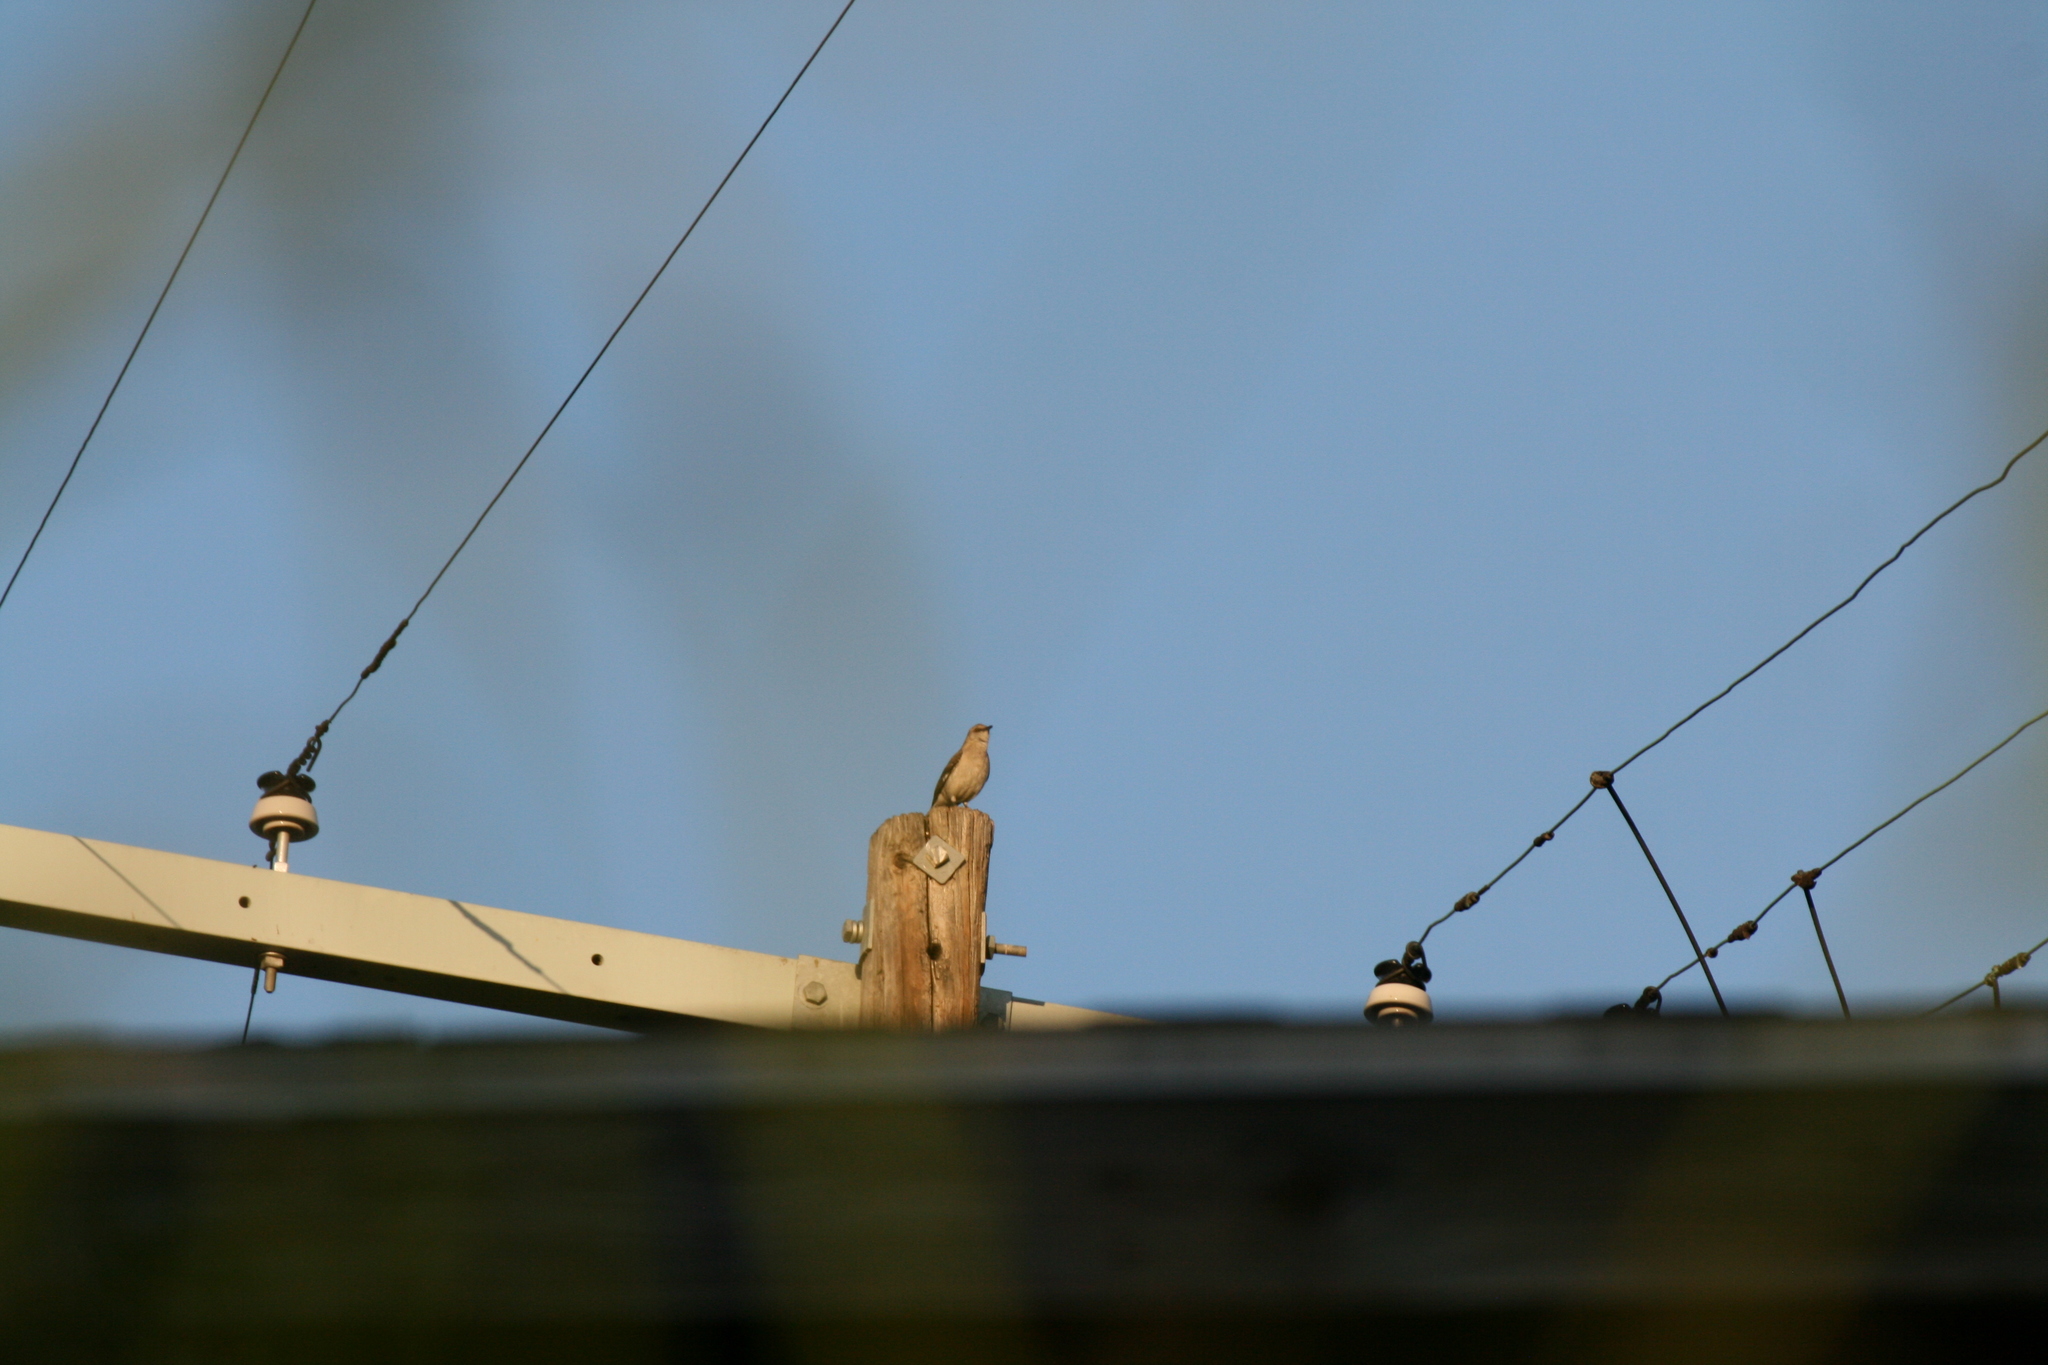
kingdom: Animalia
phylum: Chordata
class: Aves
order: Passeriformes
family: Mimidae
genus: Mimus
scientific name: Mimus polyglottos
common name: Northern mockingbird
